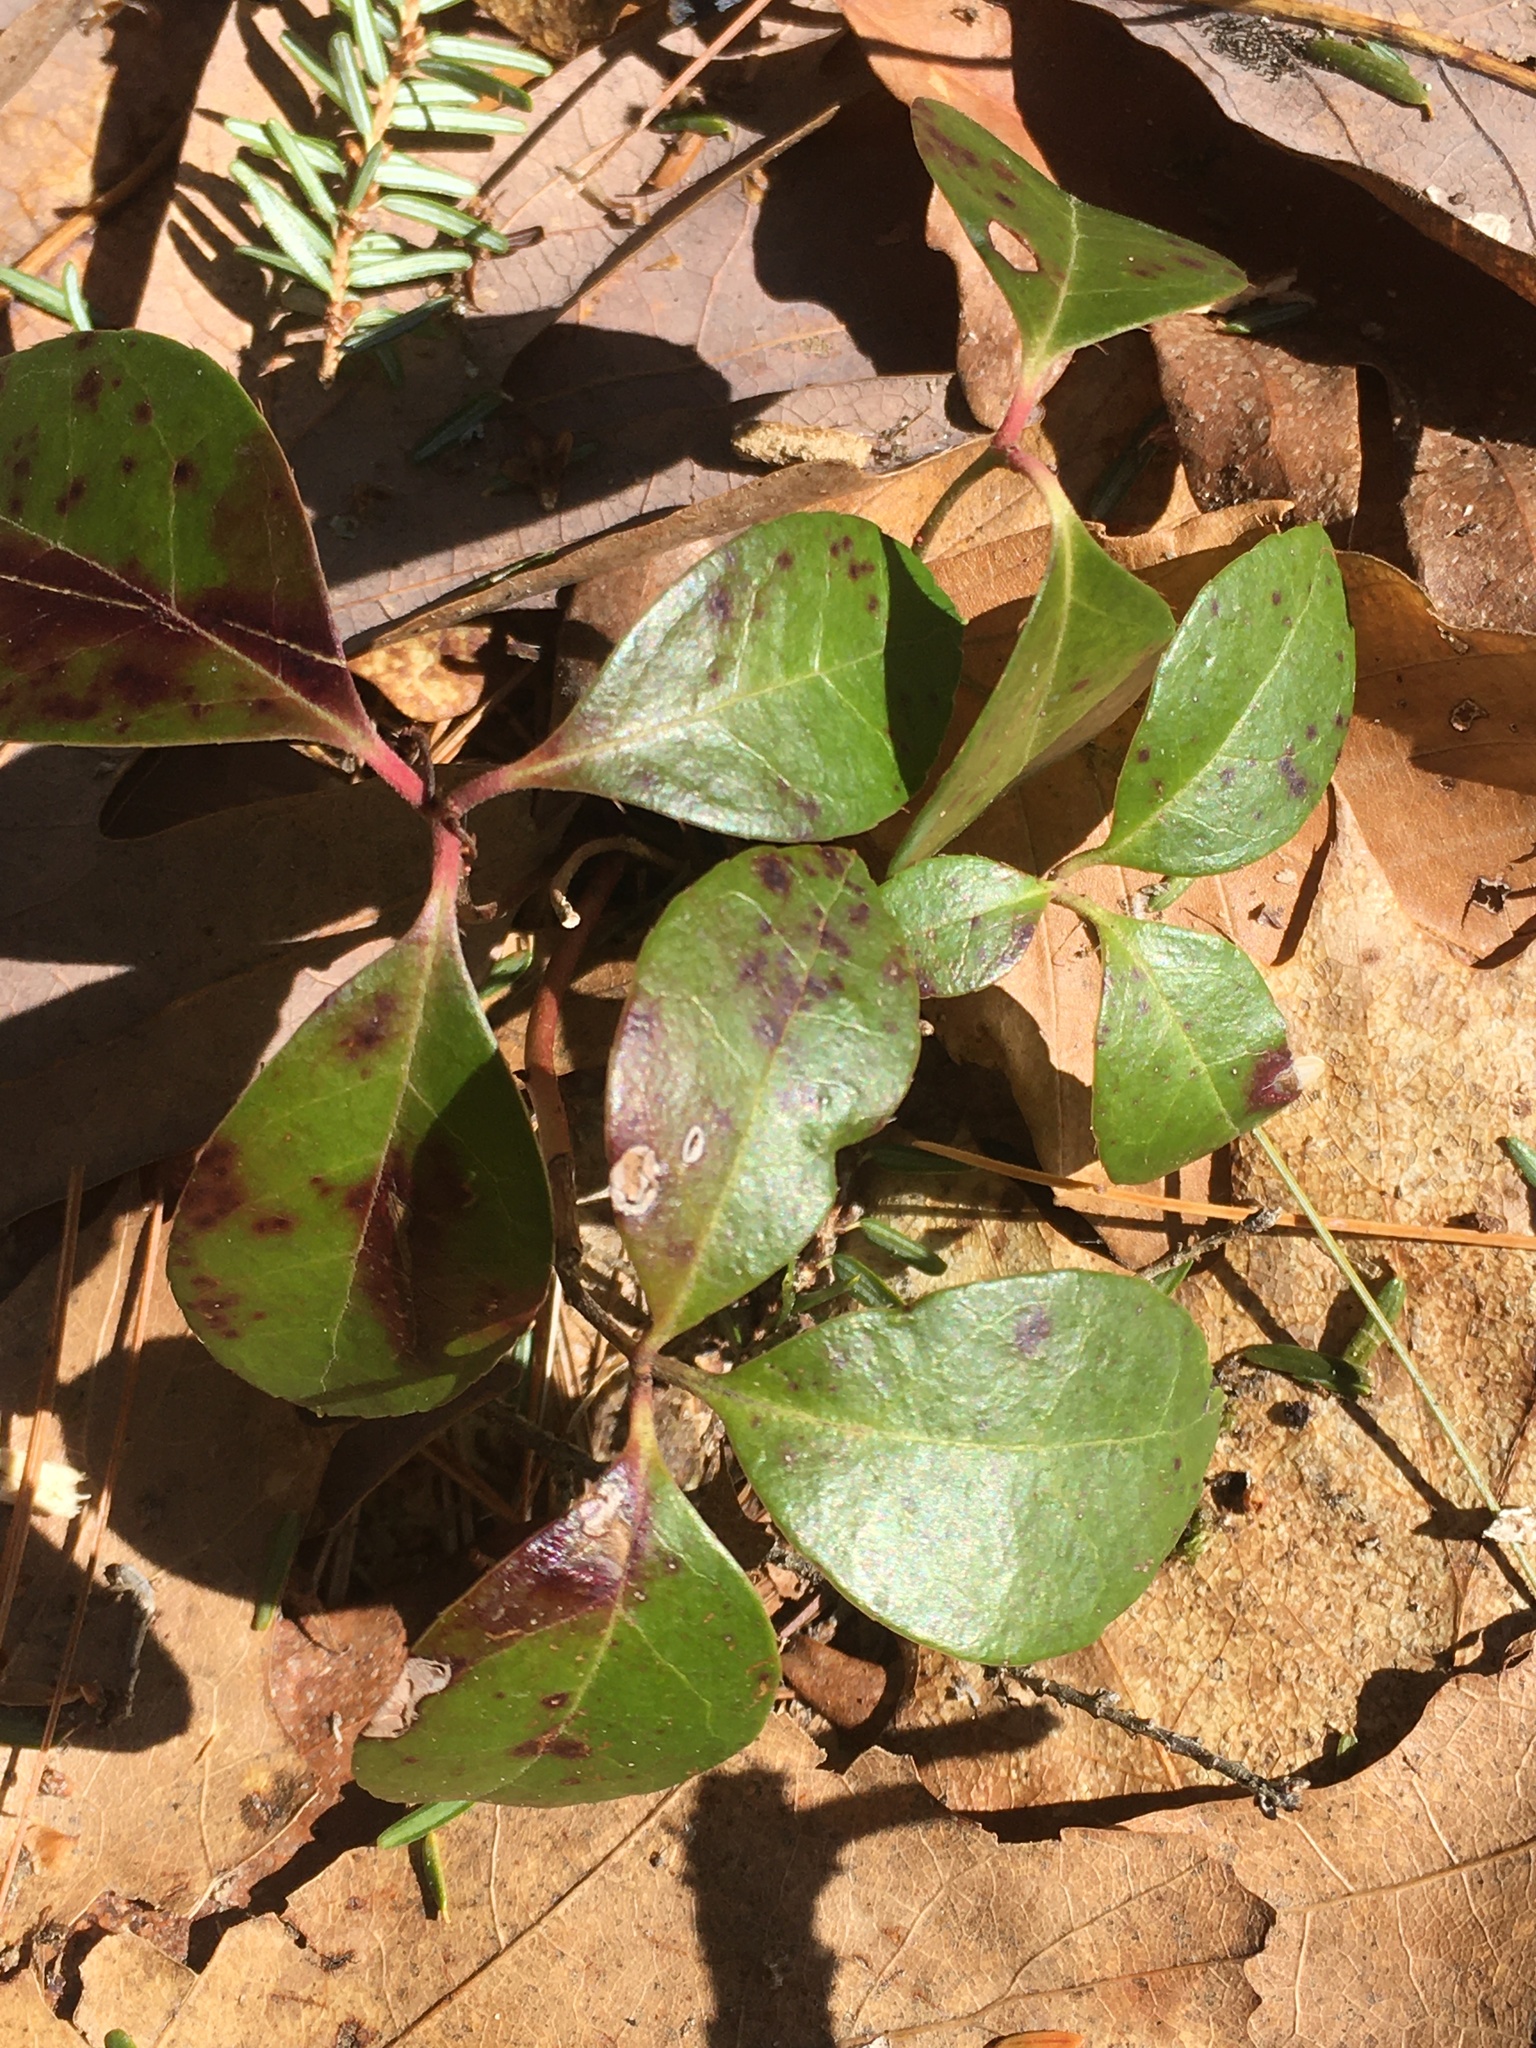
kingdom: Plantae
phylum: Tracheophyta
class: Magnoliopsida
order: Ericales
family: Ericaceae
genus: Gaultheria
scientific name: Gaultheria procumbens
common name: Checkerberry
